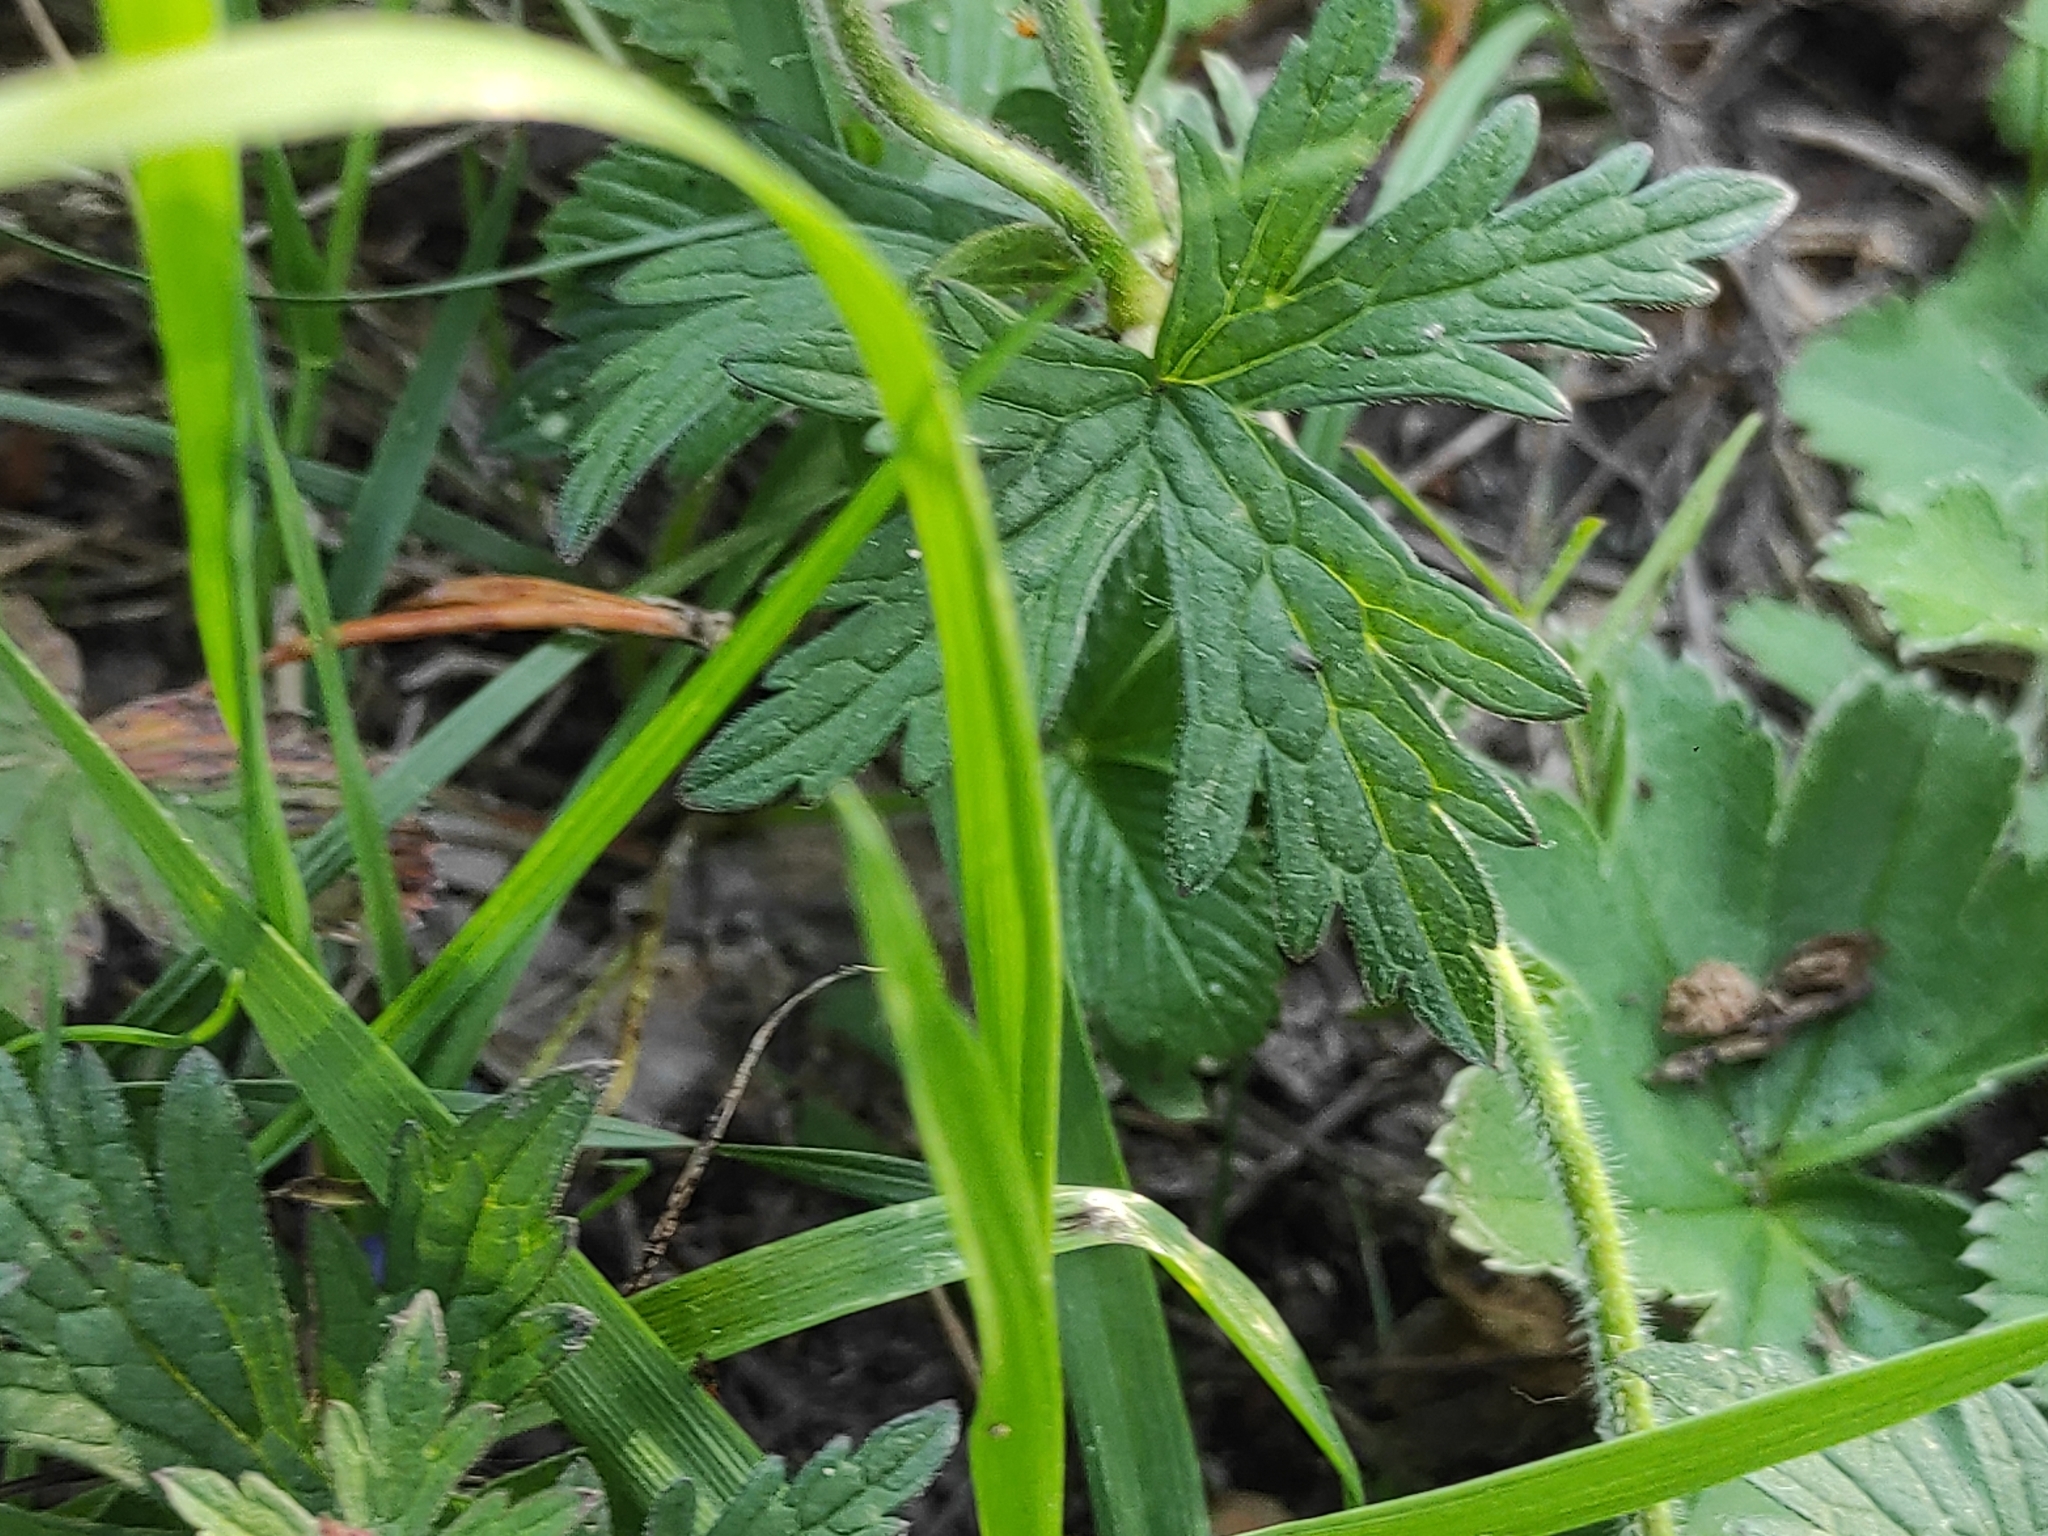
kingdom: Plantae
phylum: Tracheophyta
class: Magnoliopsida
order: Geraniales
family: Geraniaceae
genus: Geranium
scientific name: Geranium pratense
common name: Meadow crane's-bill
